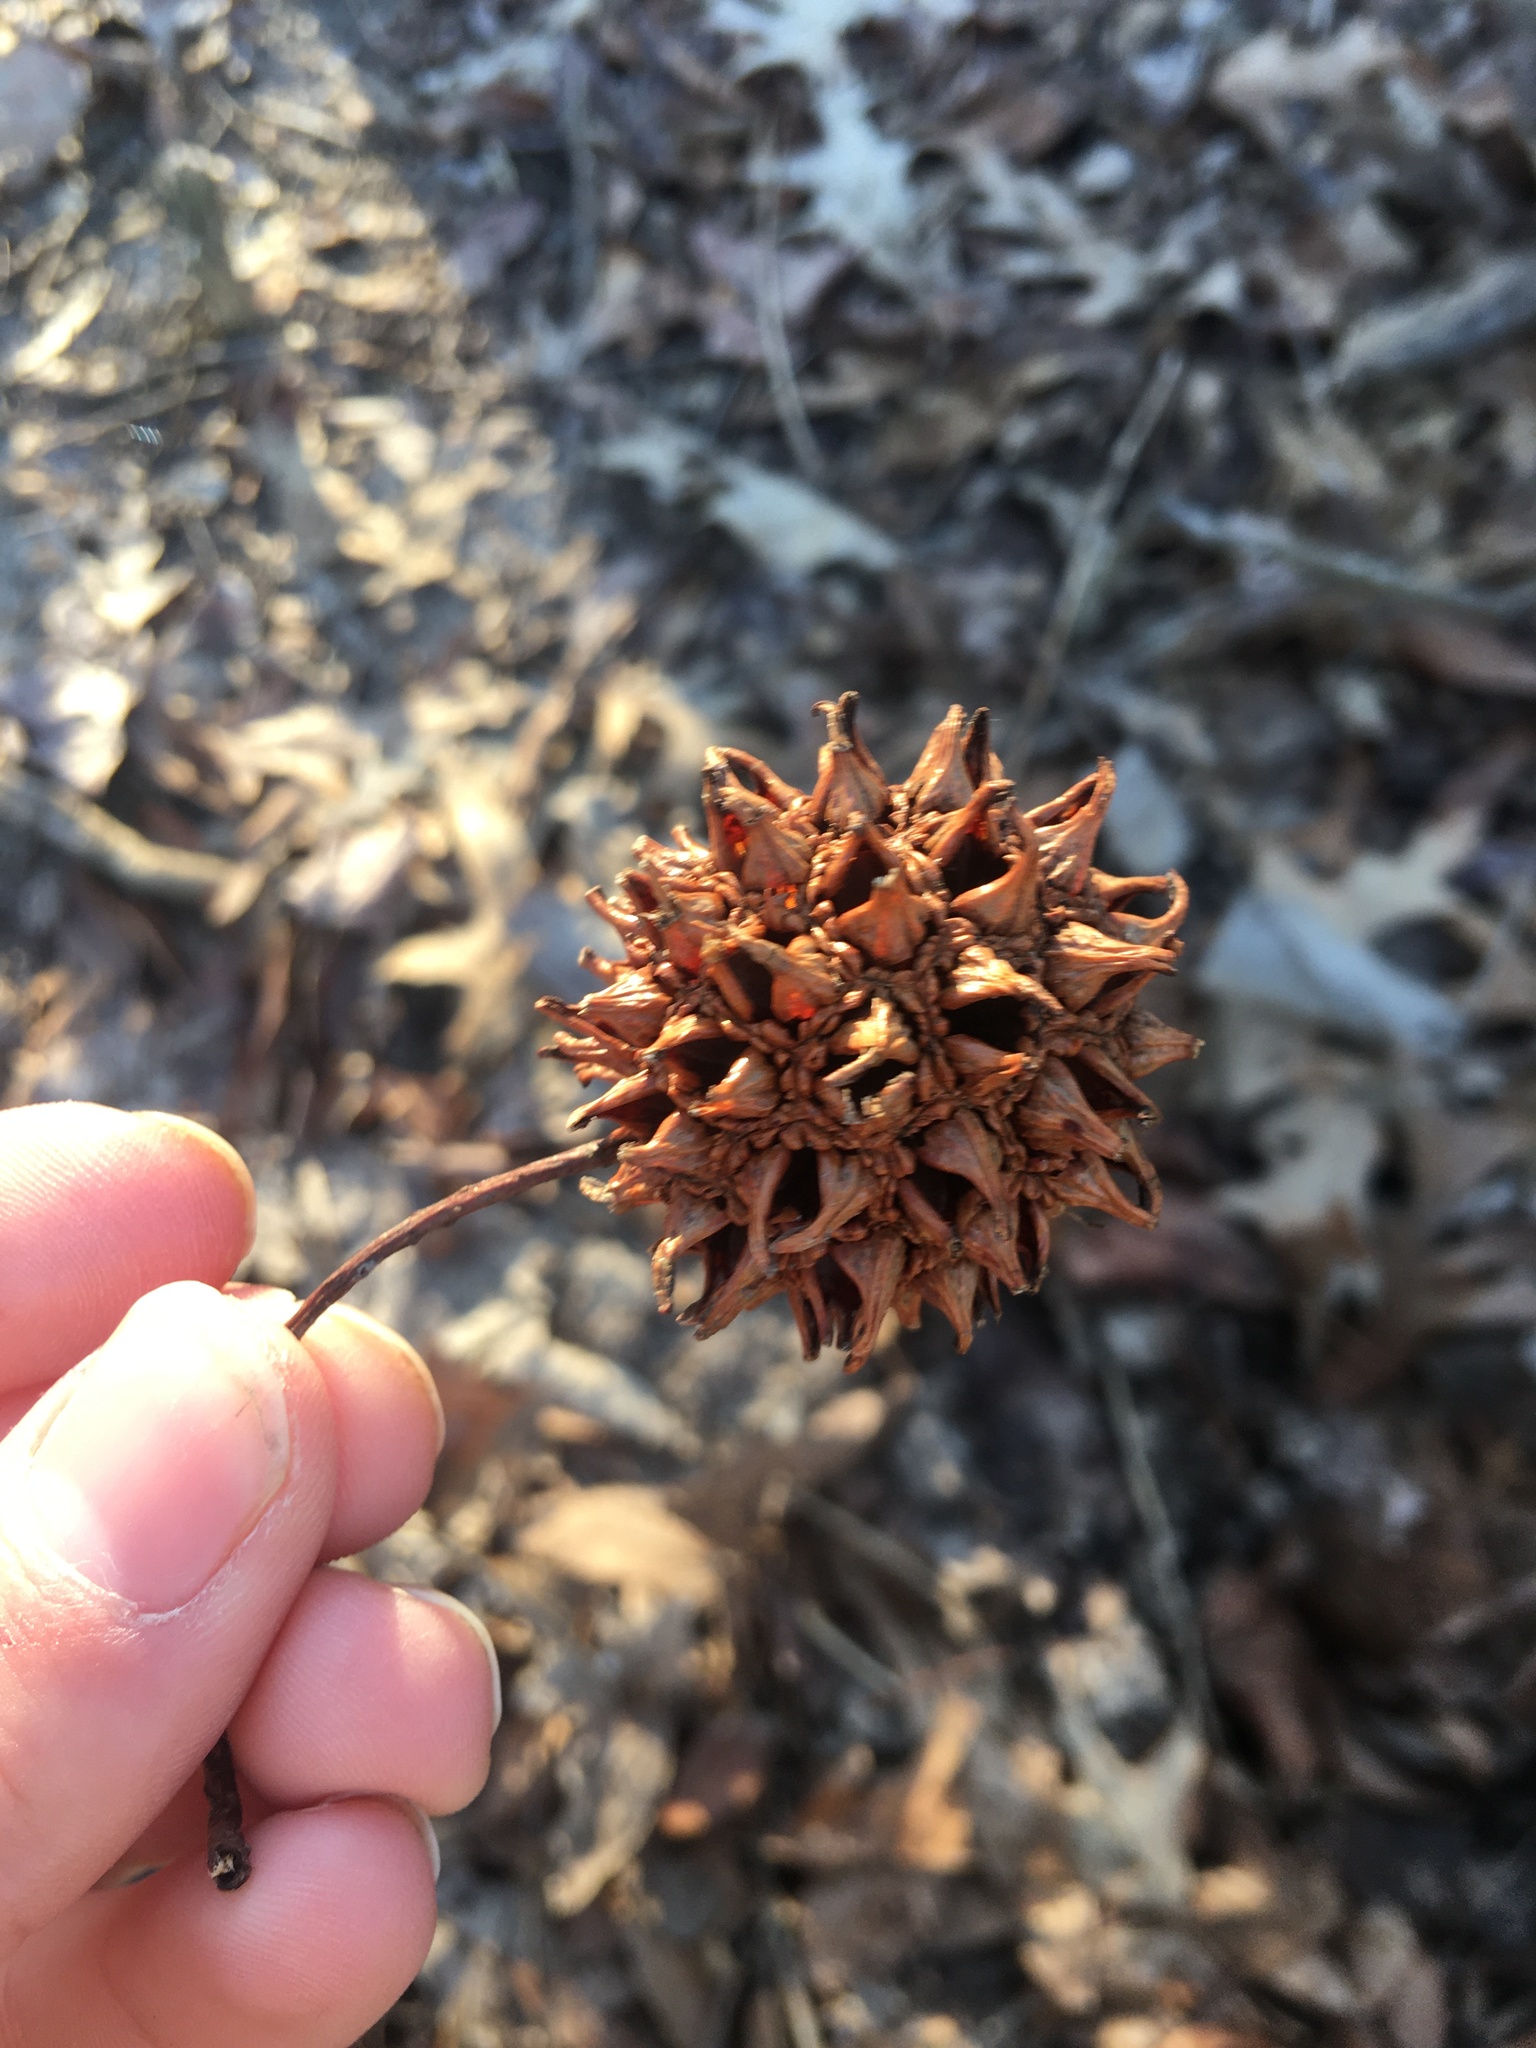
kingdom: Plantae
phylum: Tracheophyta
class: Magnoliopsida
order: Saxifragales
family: Altingiaceae
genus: Liquidambar
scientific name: Liquidambar styraciflua
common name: Sweet gum
